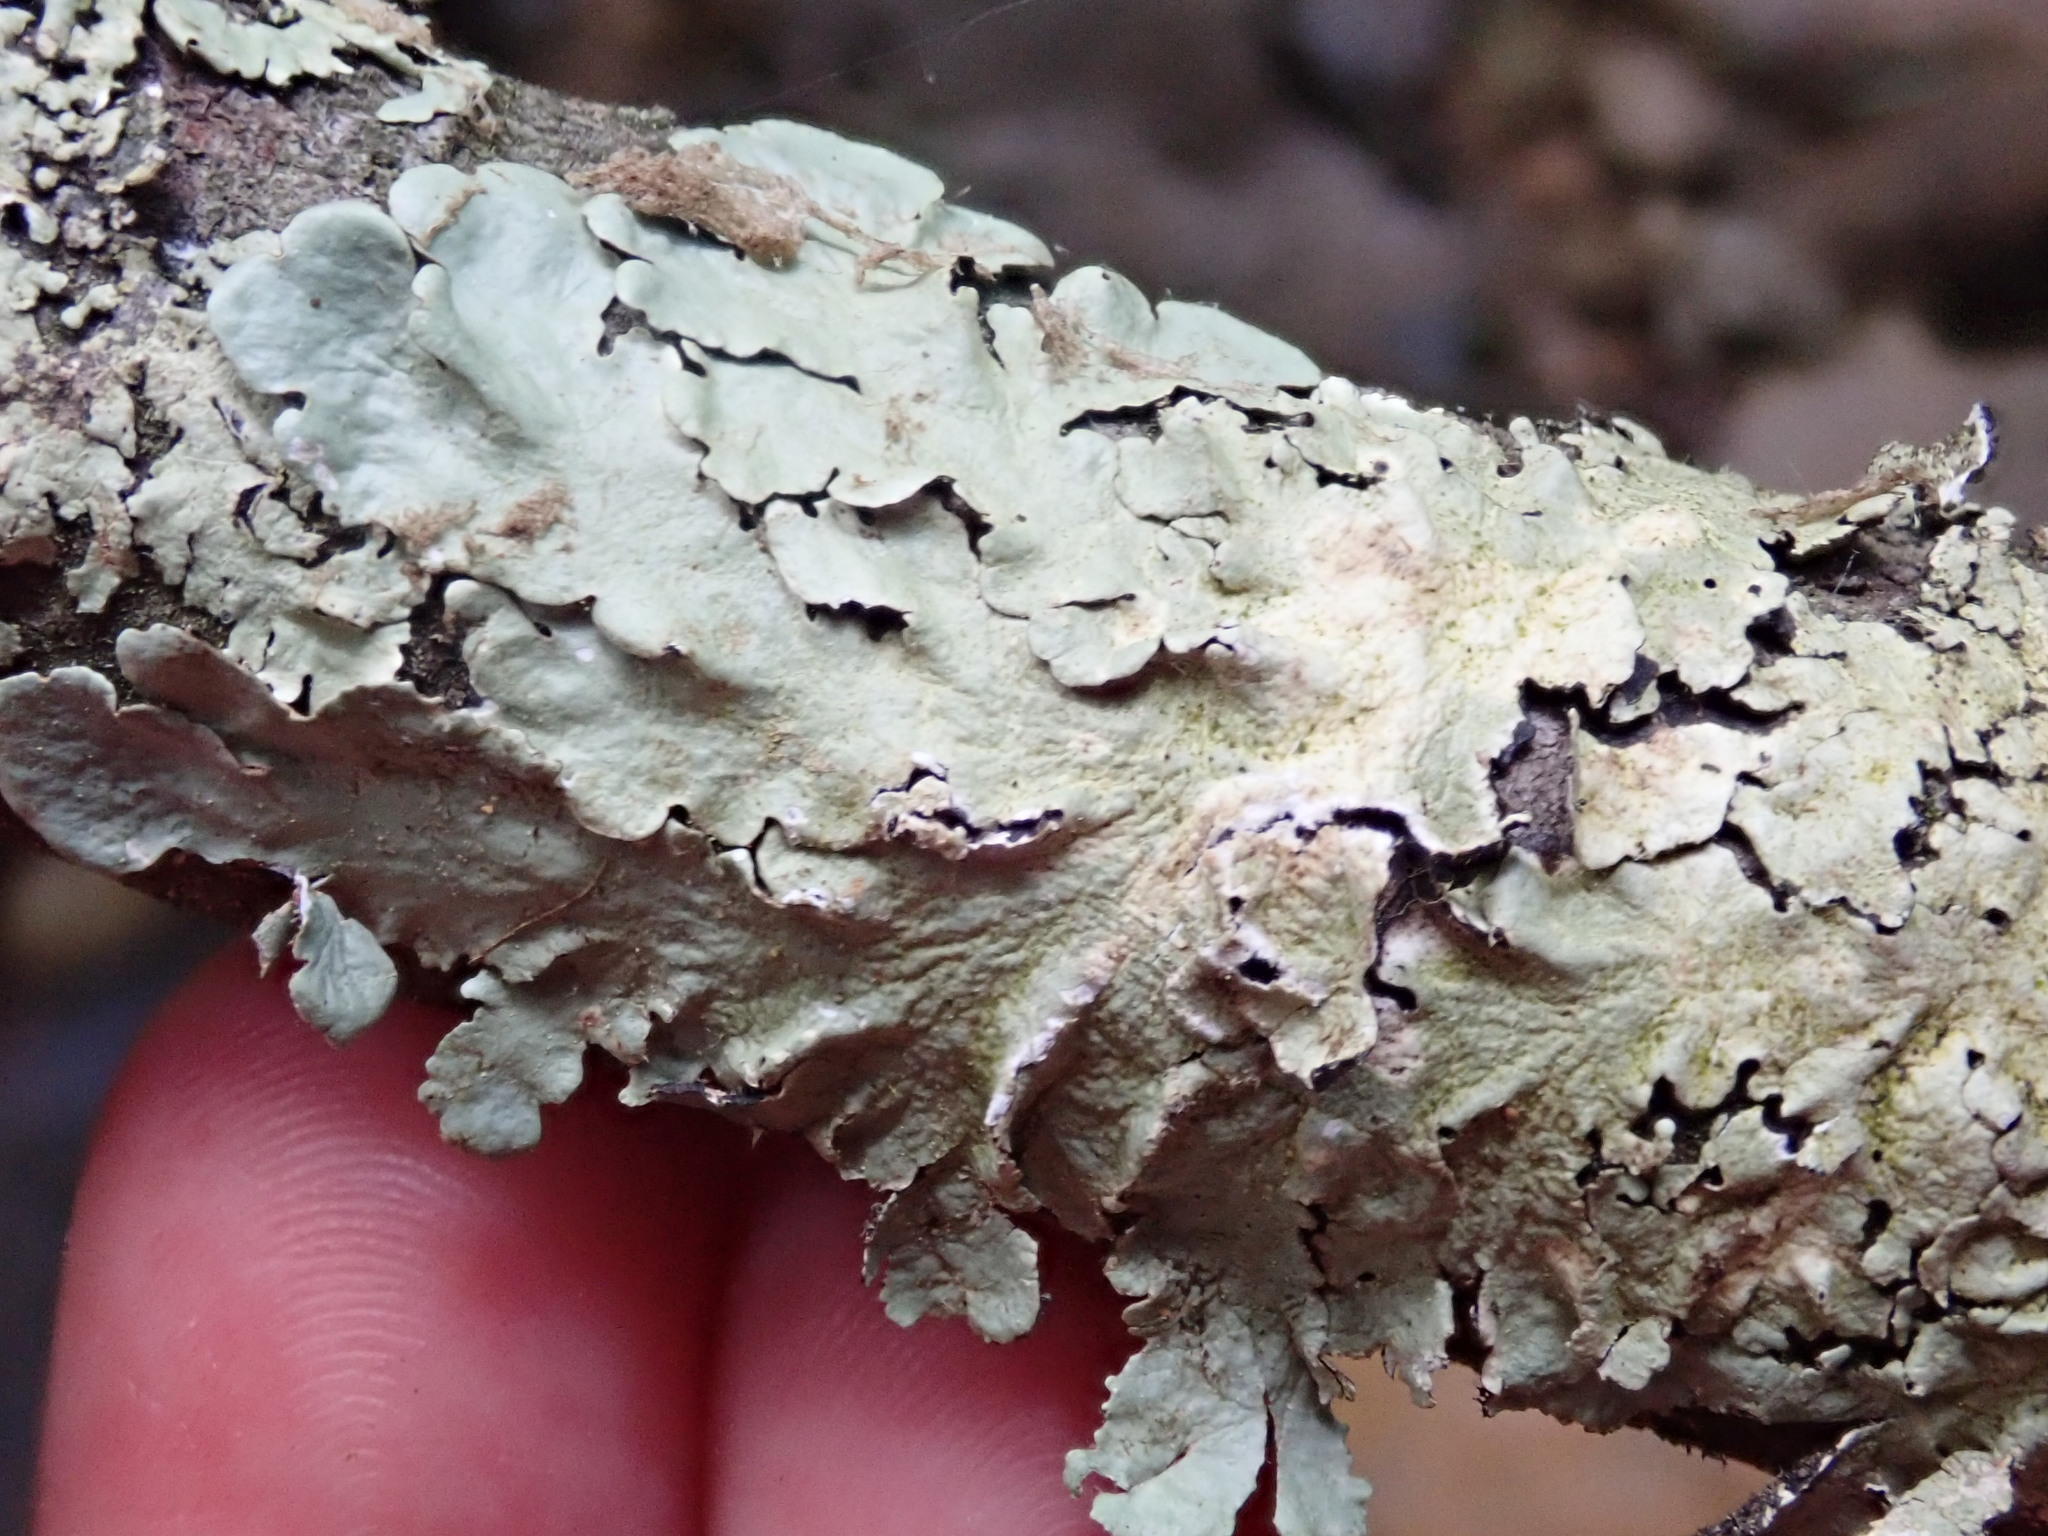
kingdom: Fungi
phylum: Ascomycota
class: Lecanoromycetes
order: Lecanorales
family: Parmeliaceae
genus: Flavoparmelia
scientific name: Flavoparmelia caperata
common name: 40-mile per hour lichen
